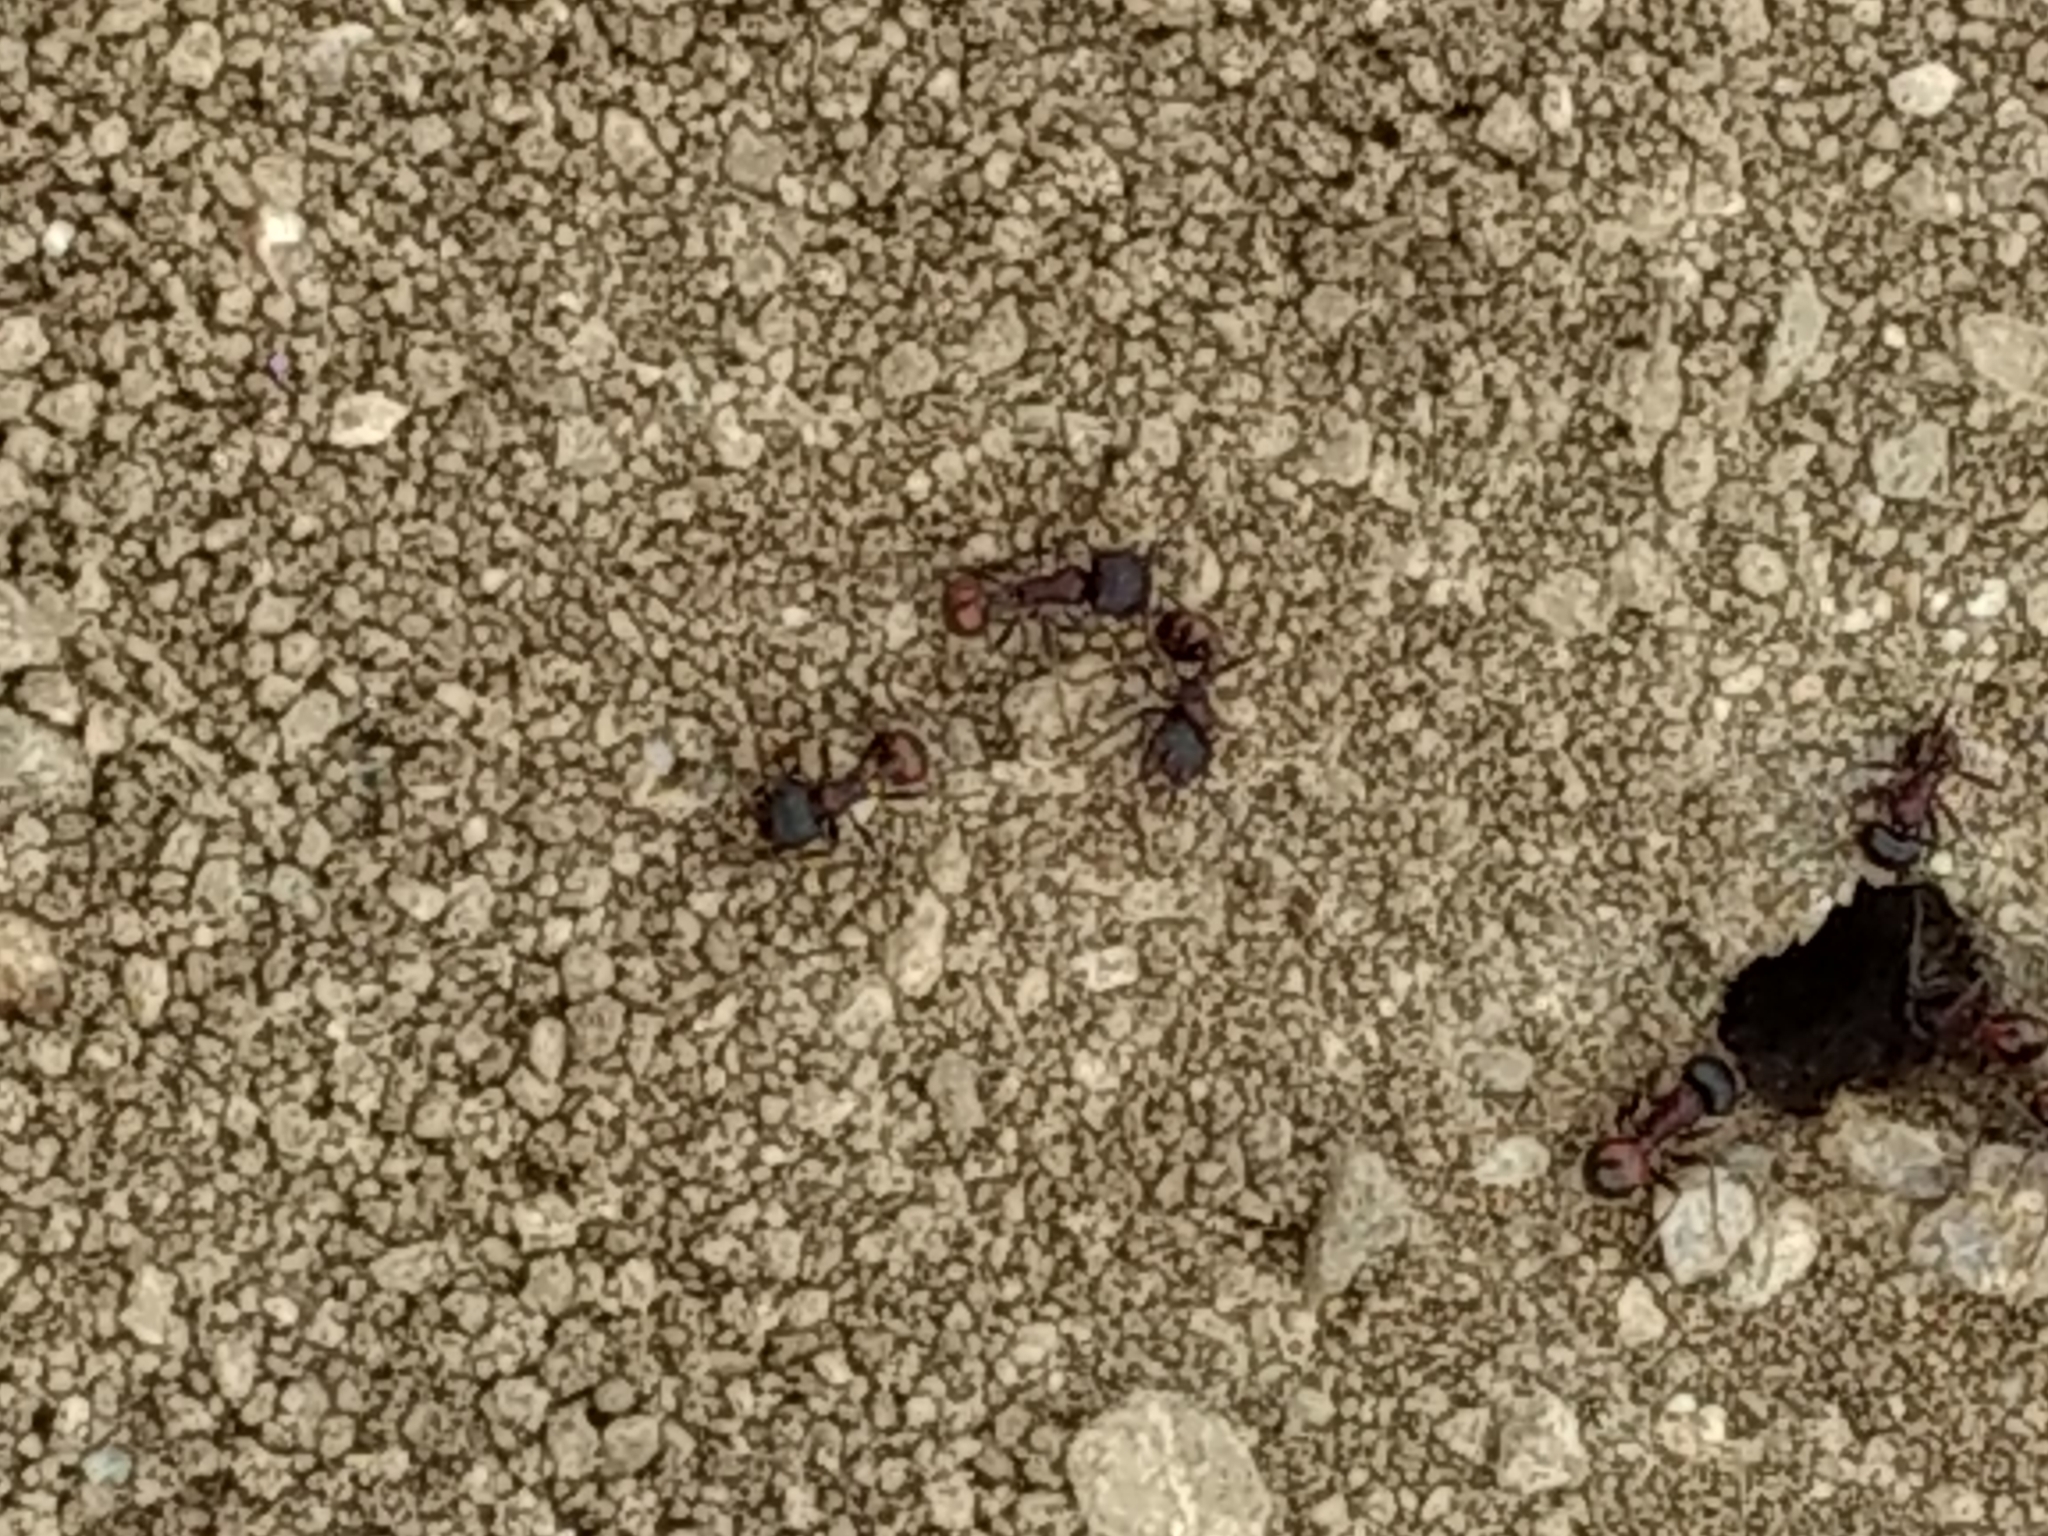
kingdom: Animalia
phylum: Arthropoda
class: Insecta
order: Hymenoptera
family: Formicidae
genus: Pogonomyrmex
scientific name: Pogonomyrmex rugosus
